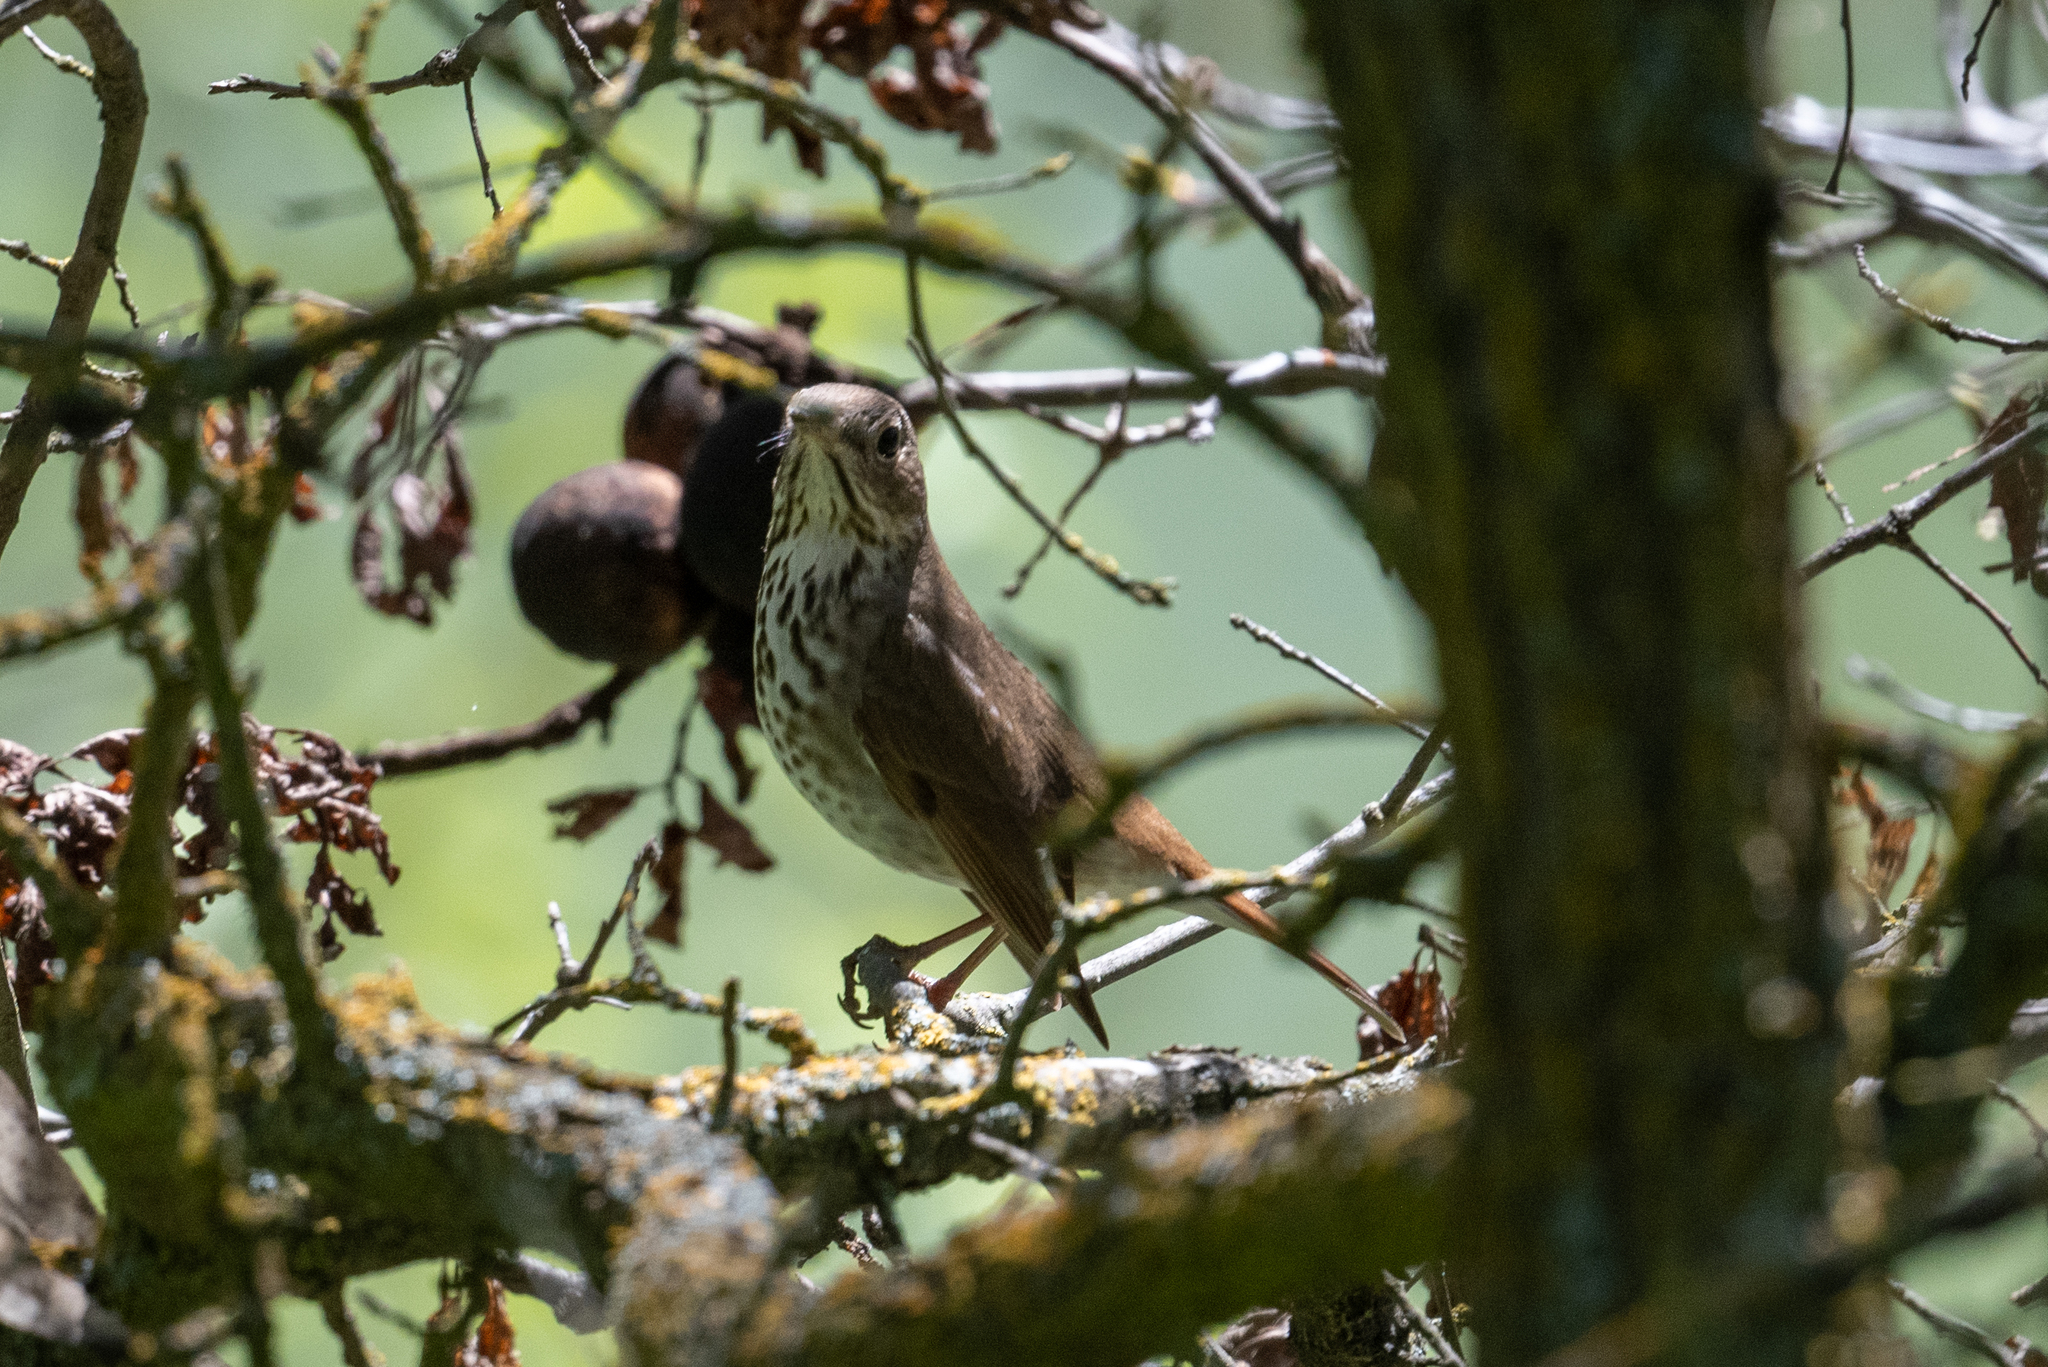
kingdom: Animalia
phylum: Chordata
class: Aves
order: Passeriformes
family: Turdidae
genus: Catharus
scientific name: Catharus guttatus
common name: Hermit thrush
